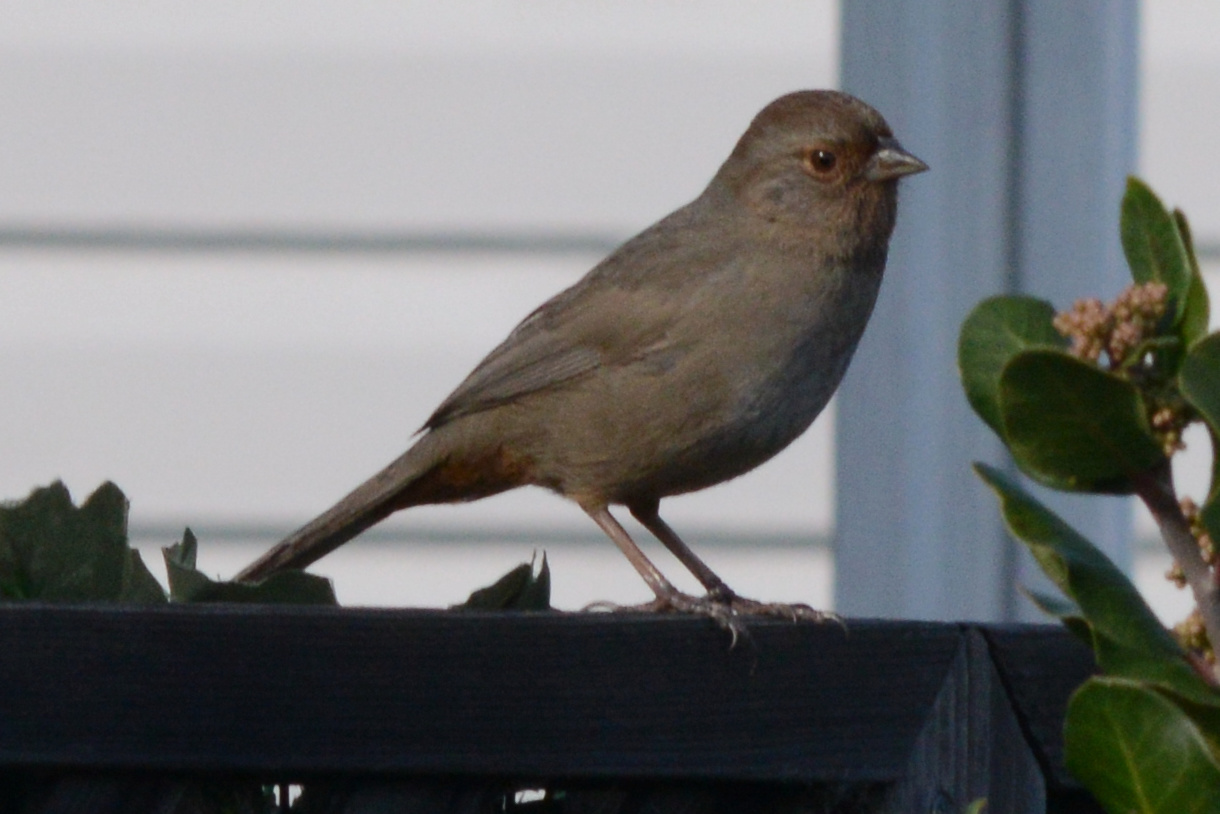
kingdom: Animalia
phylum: Chordata
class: Aves
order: Passeriformes
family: Passerellidae
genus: Melozone
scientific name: Melozone crissalis
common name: California towhee
